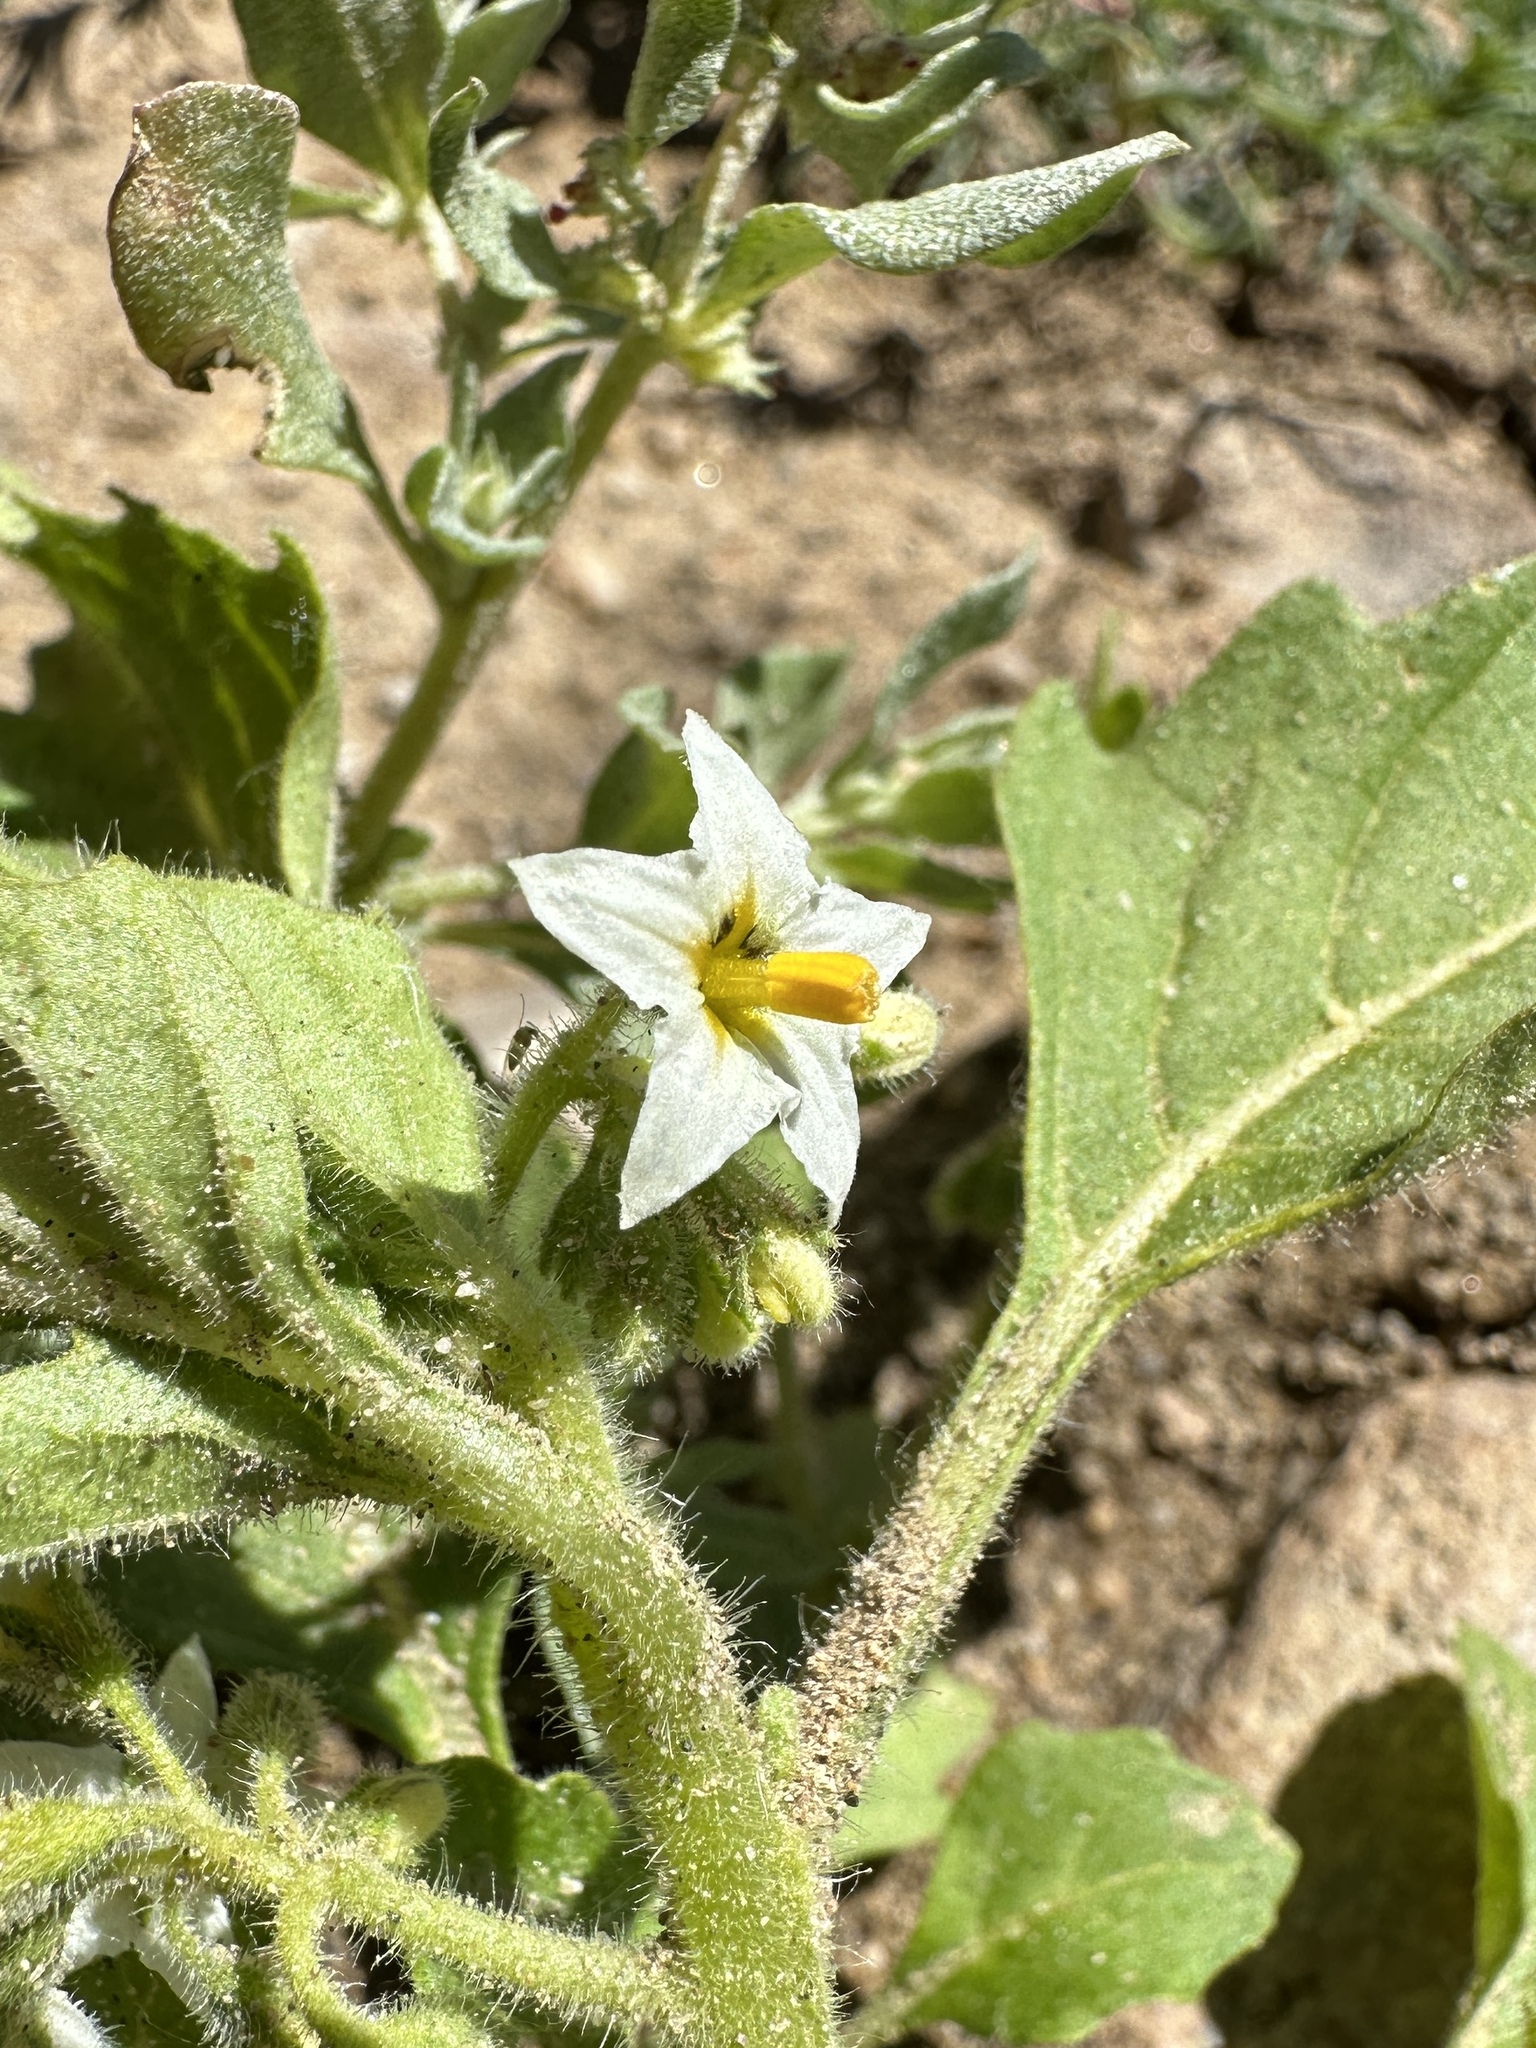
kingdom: Plantae
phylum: Tracheophyta
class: Magnoliopsida
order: Solanales
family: Solanaceae
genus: Solanum
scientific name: Solanum nitidibaccatum
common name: Hairy nightshade
